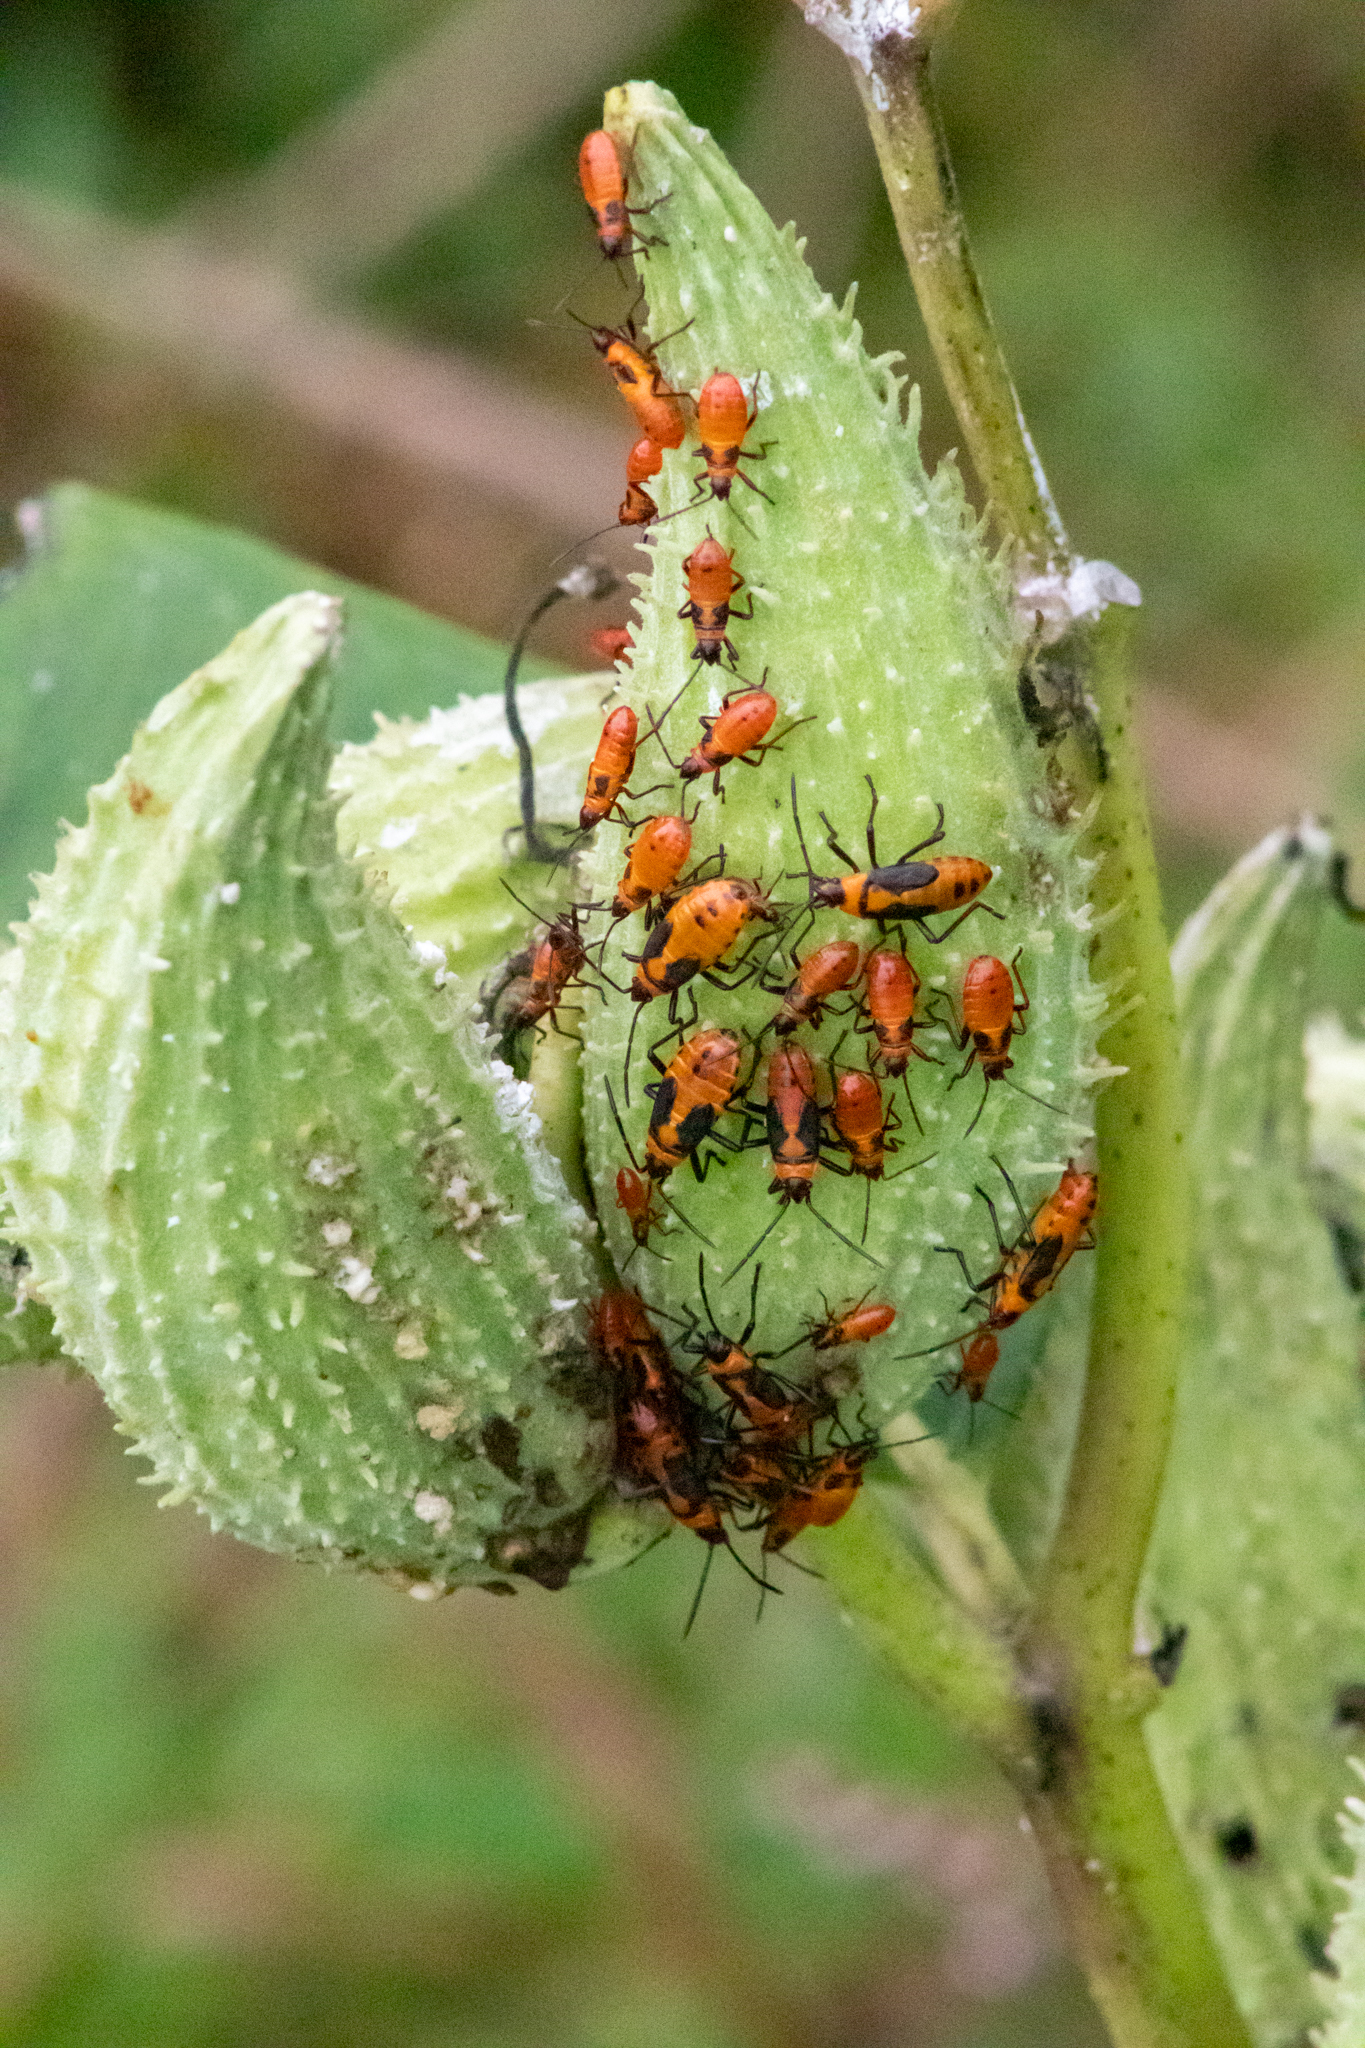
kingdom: Animalia
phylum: Arthropoda
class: Insecta
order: Hemiptera
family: Lygaeidae
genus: Oncopeltus
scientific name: Oncopeltus fasciatus
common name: Large milkweed bug
